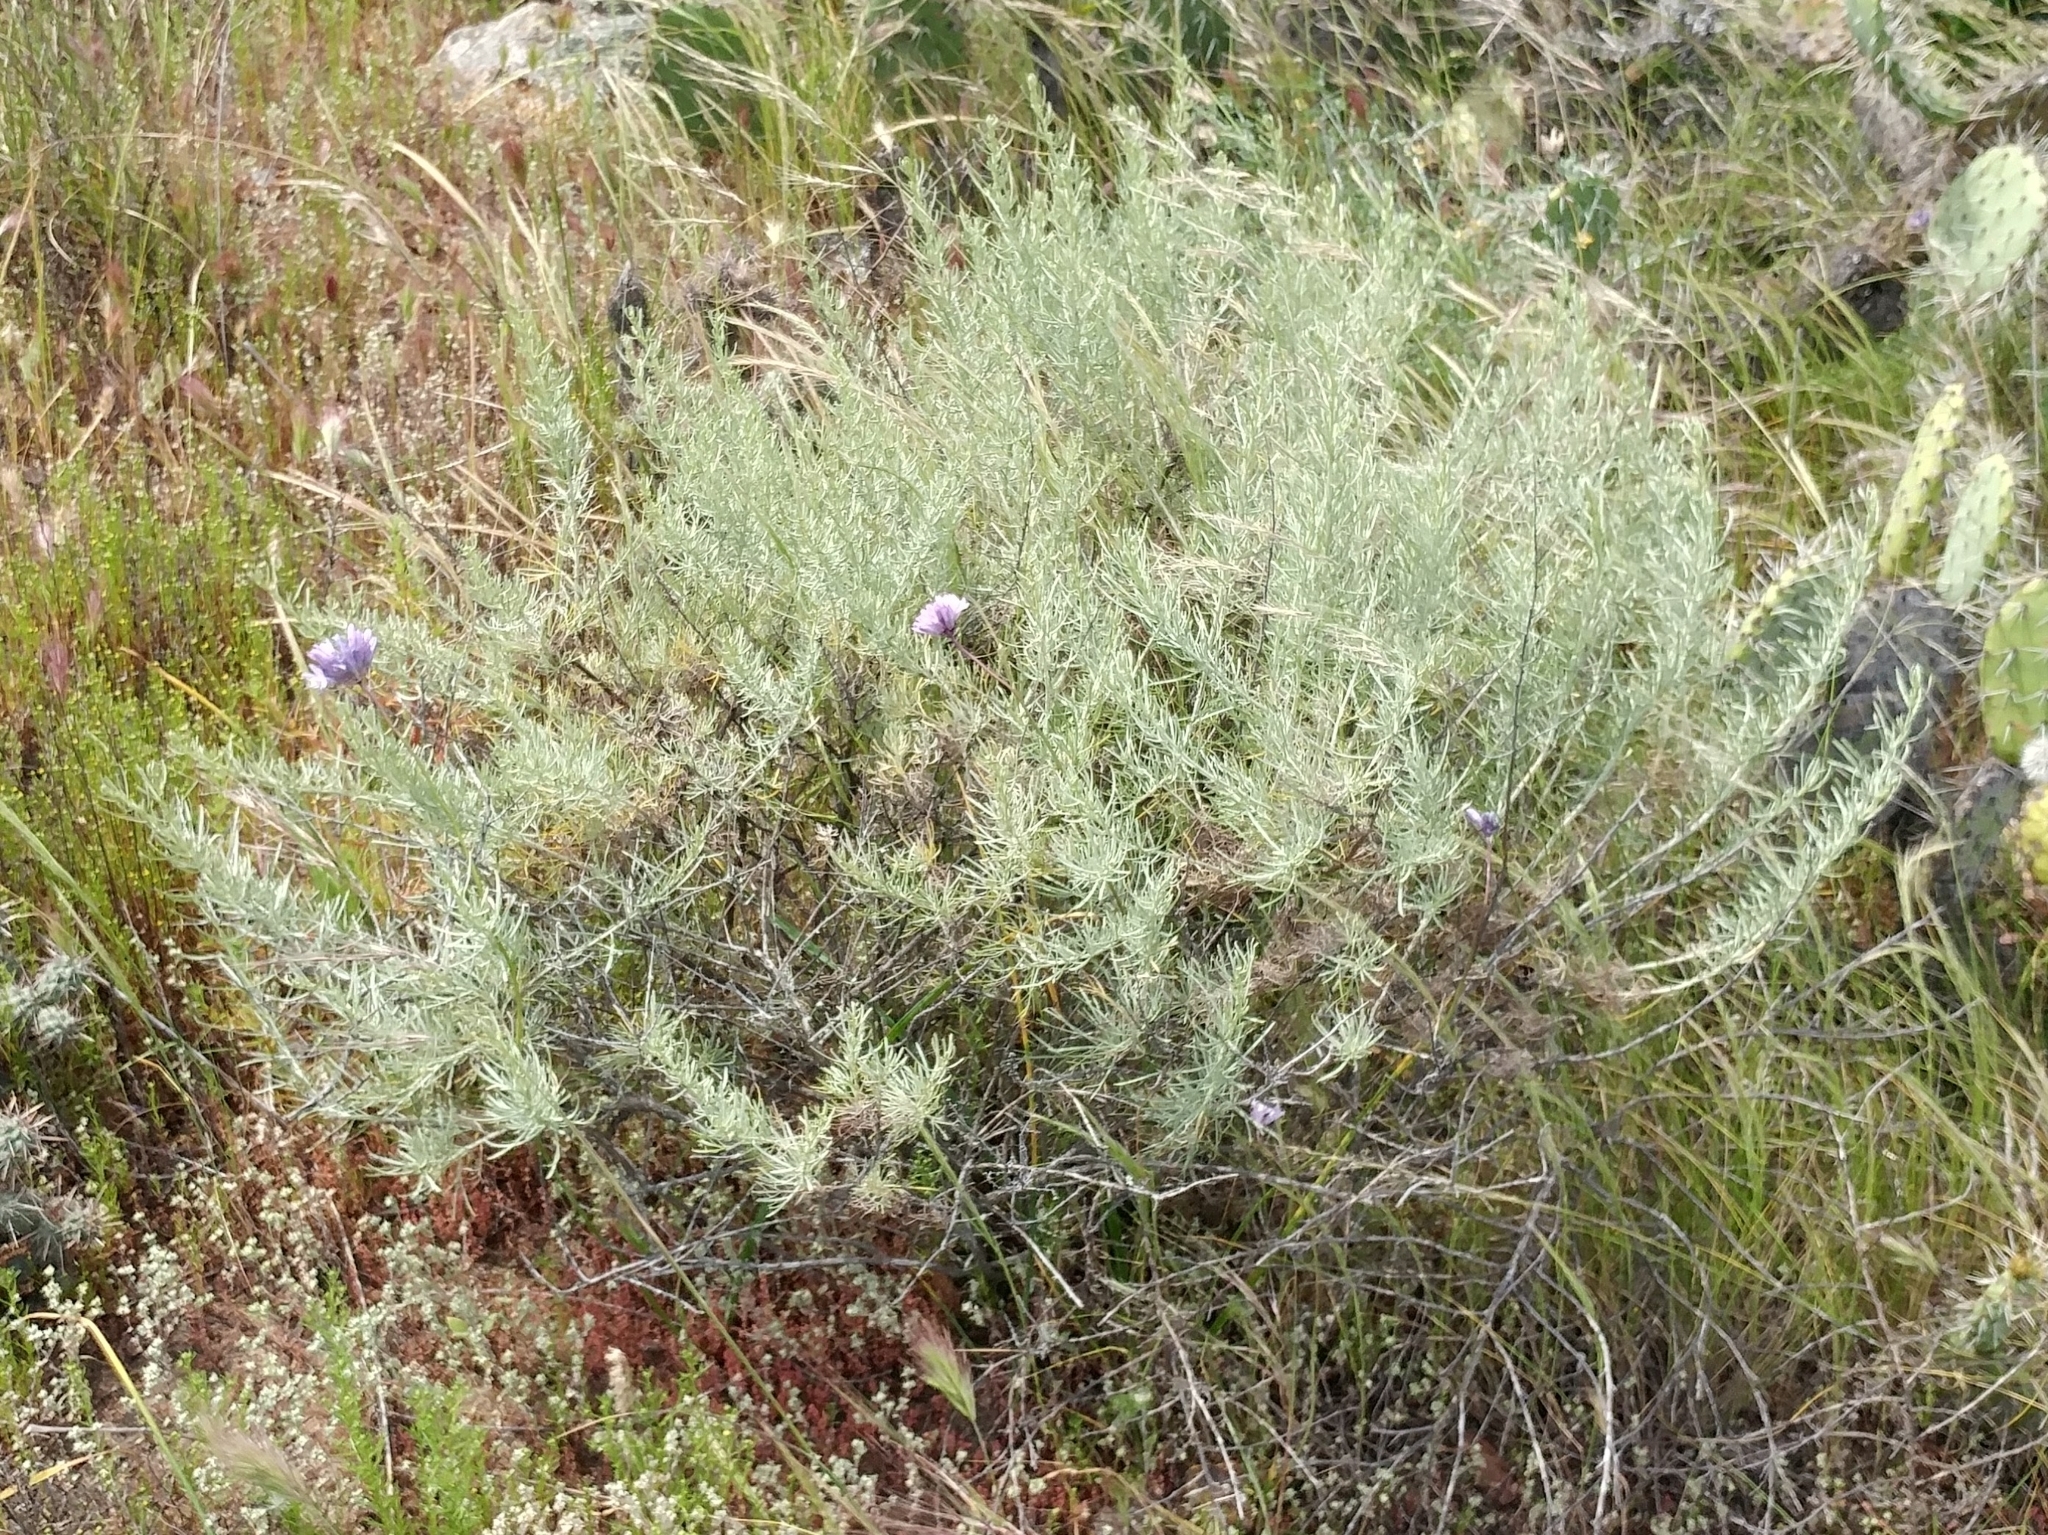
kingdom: Plantae
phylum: Tracheophyta
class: Magnoliopsida
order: Asterales
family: Asteraceae
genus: Artemisia
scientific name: Artemisia californica
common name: California sagebrush
